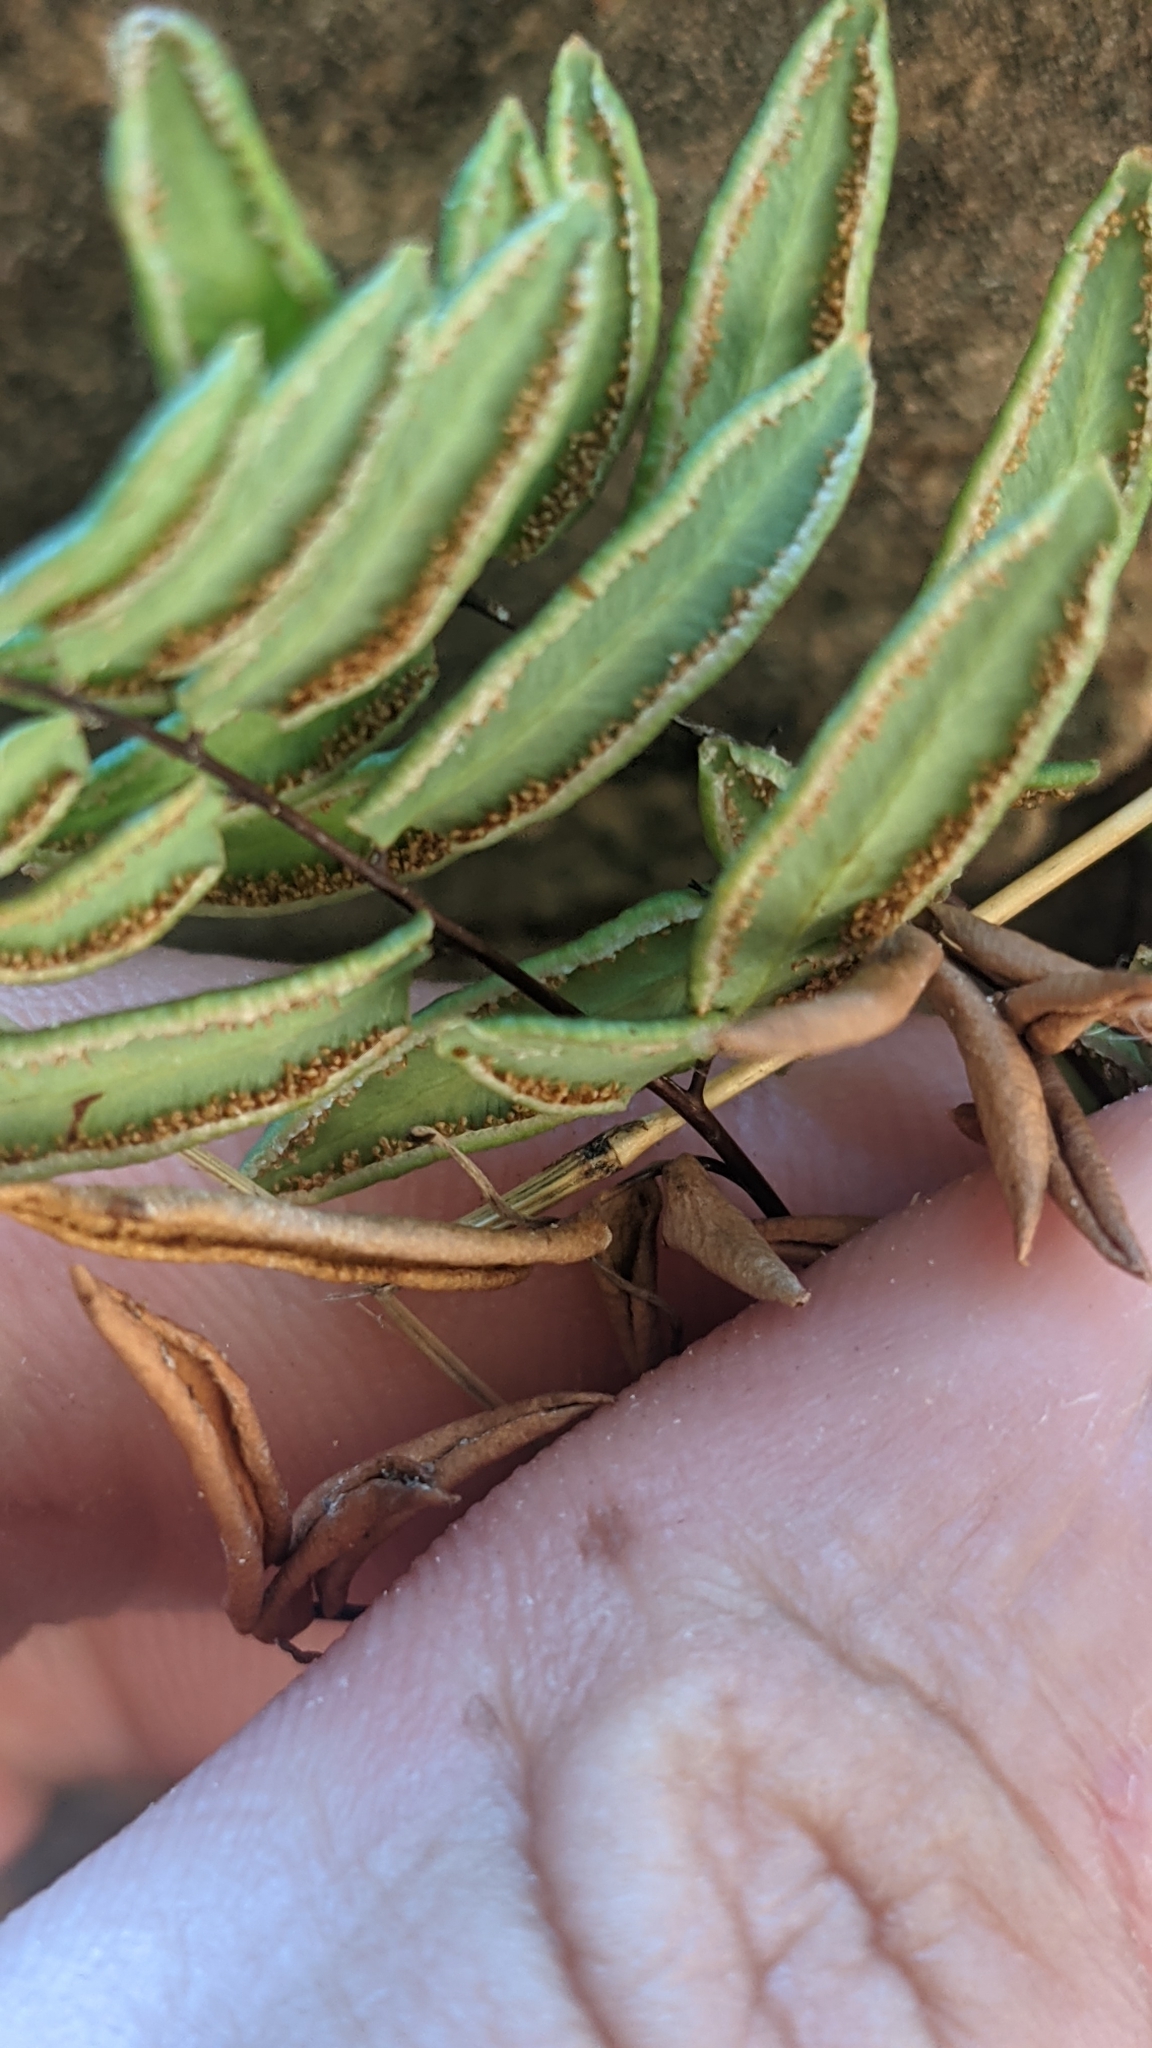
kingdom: Plantae
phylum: Tracheophyta
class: Polypodiopsida
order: Polypodiales
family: Pteridaceae
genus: Pellaea
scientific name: Pellaea glabella
